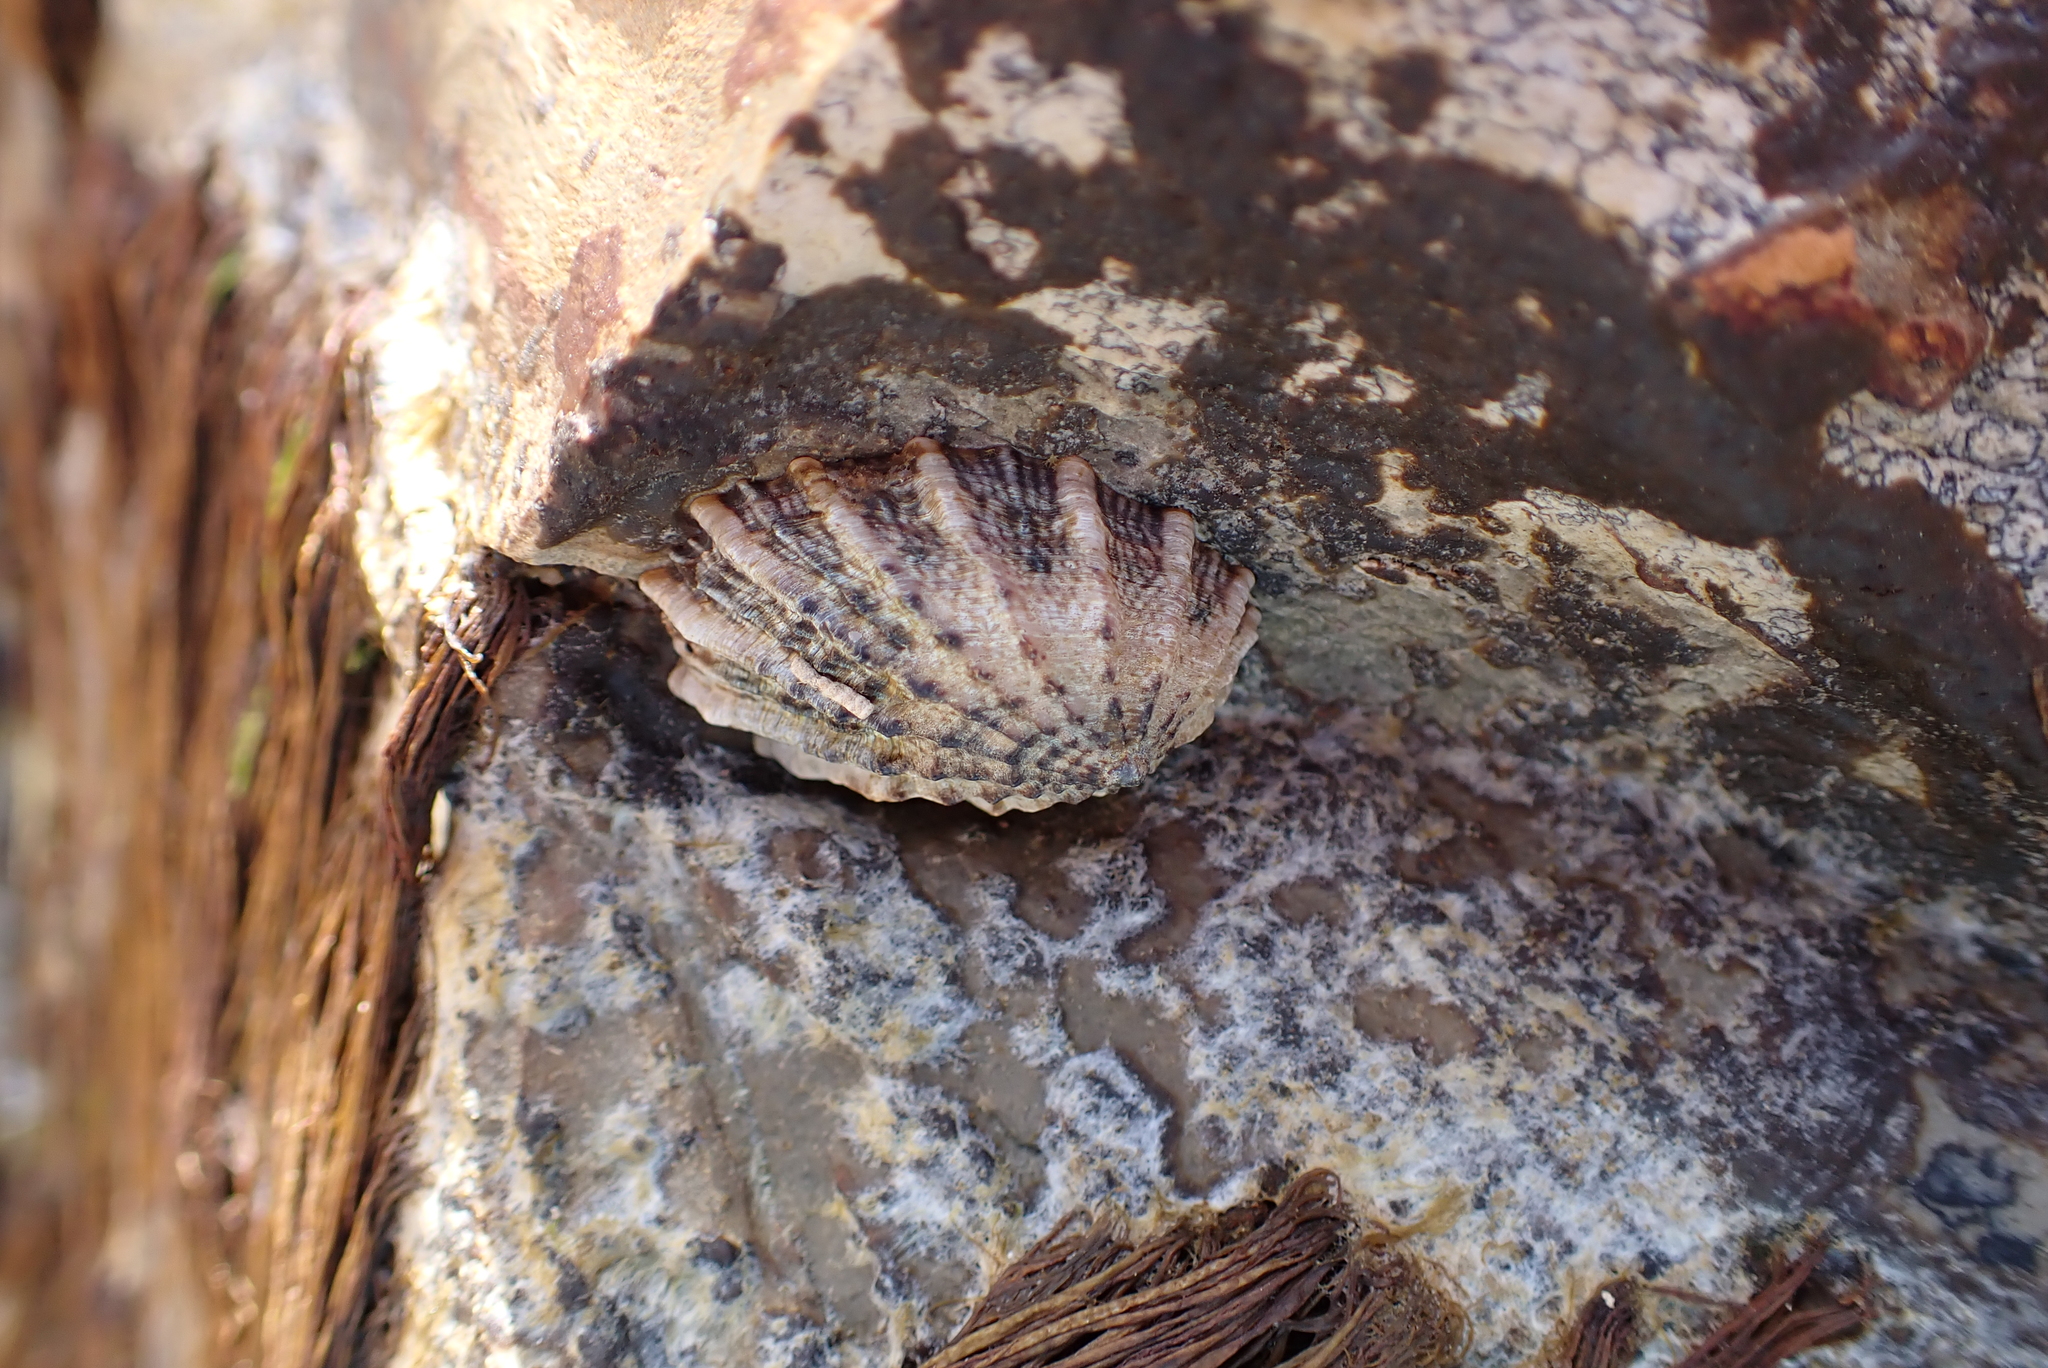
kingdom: Animalia
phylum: Mollusca
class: Gastropoda
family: Lottiidae
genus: Lottia
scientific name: Lottia scabra
